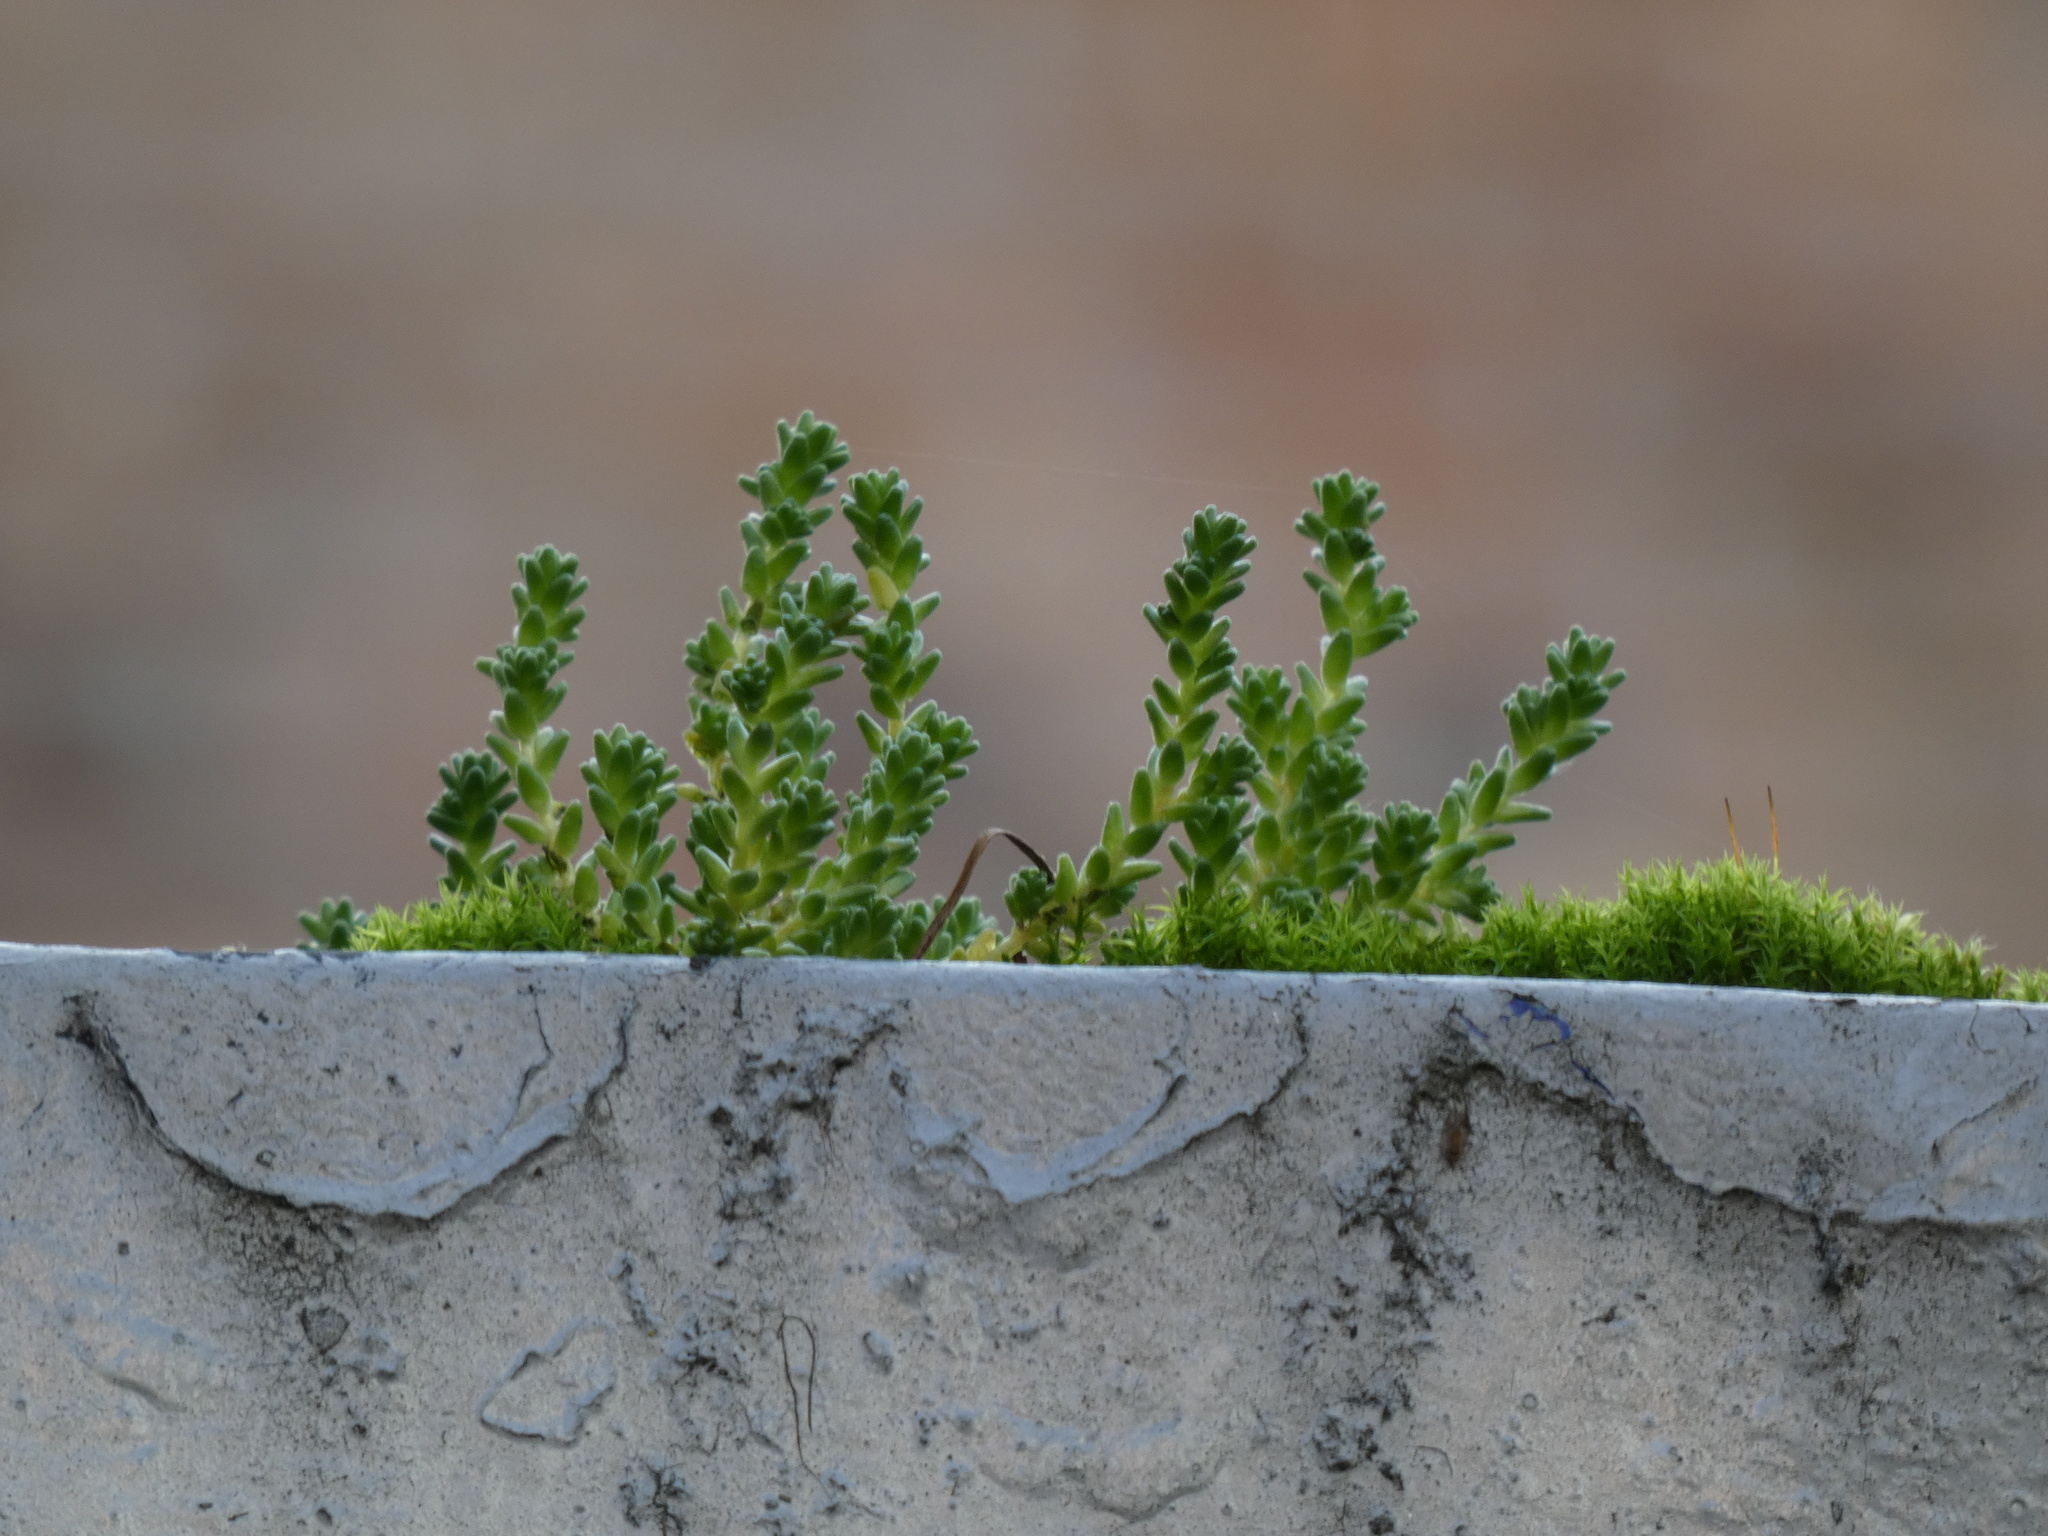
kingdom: Plantae
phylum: Tracheophyta
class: Magnoliopsida
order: Saxifragales
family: Crassulaceae
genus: Sedum
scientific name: Sedum acre
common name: Biting stonecrop
